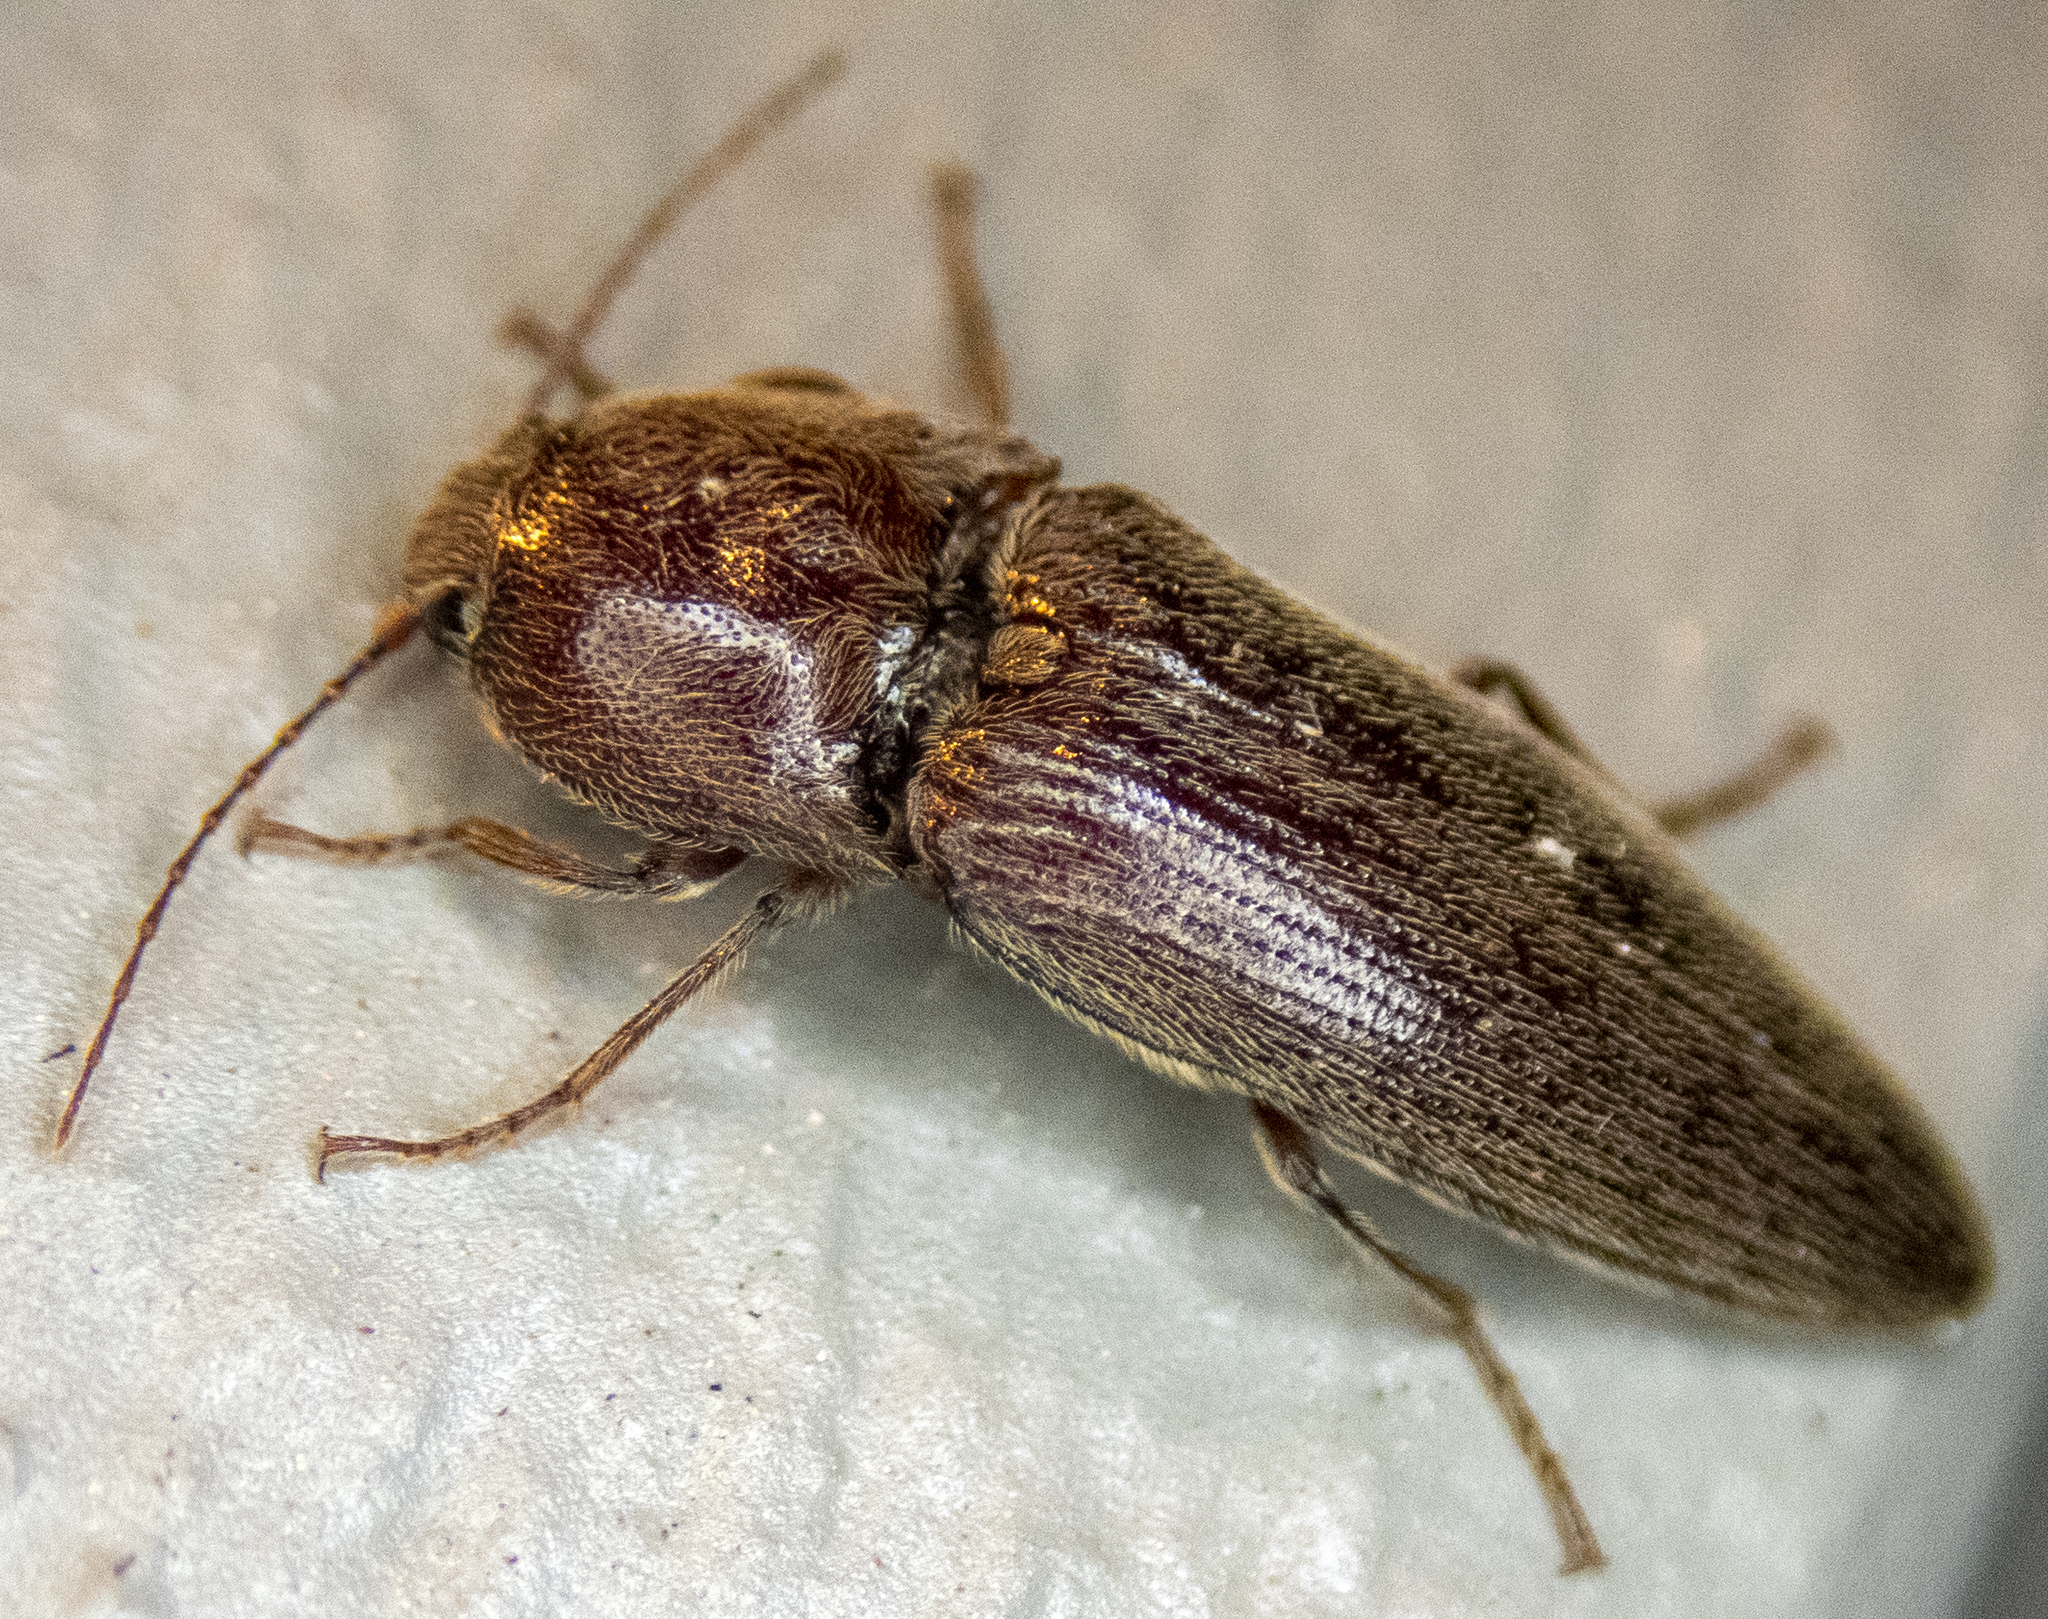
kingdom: Animalia
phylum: Arthropoda
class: Insecta
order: Coleoptera
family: Elateridae
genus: Melanotus
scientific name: Melanotus
